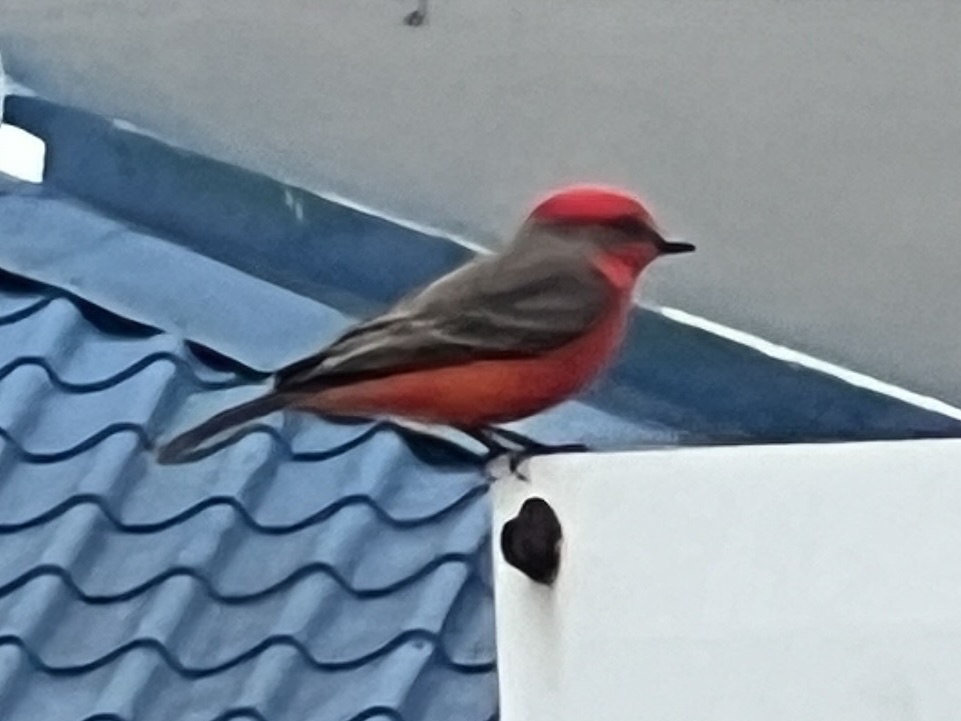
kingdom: Animalia
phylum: Chordata
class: Aves
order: Passeriformes
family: Tyrannidae
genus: Pyrocephalus
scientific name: Pyrocephalus rubinus
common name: Vermilion flycatcher
